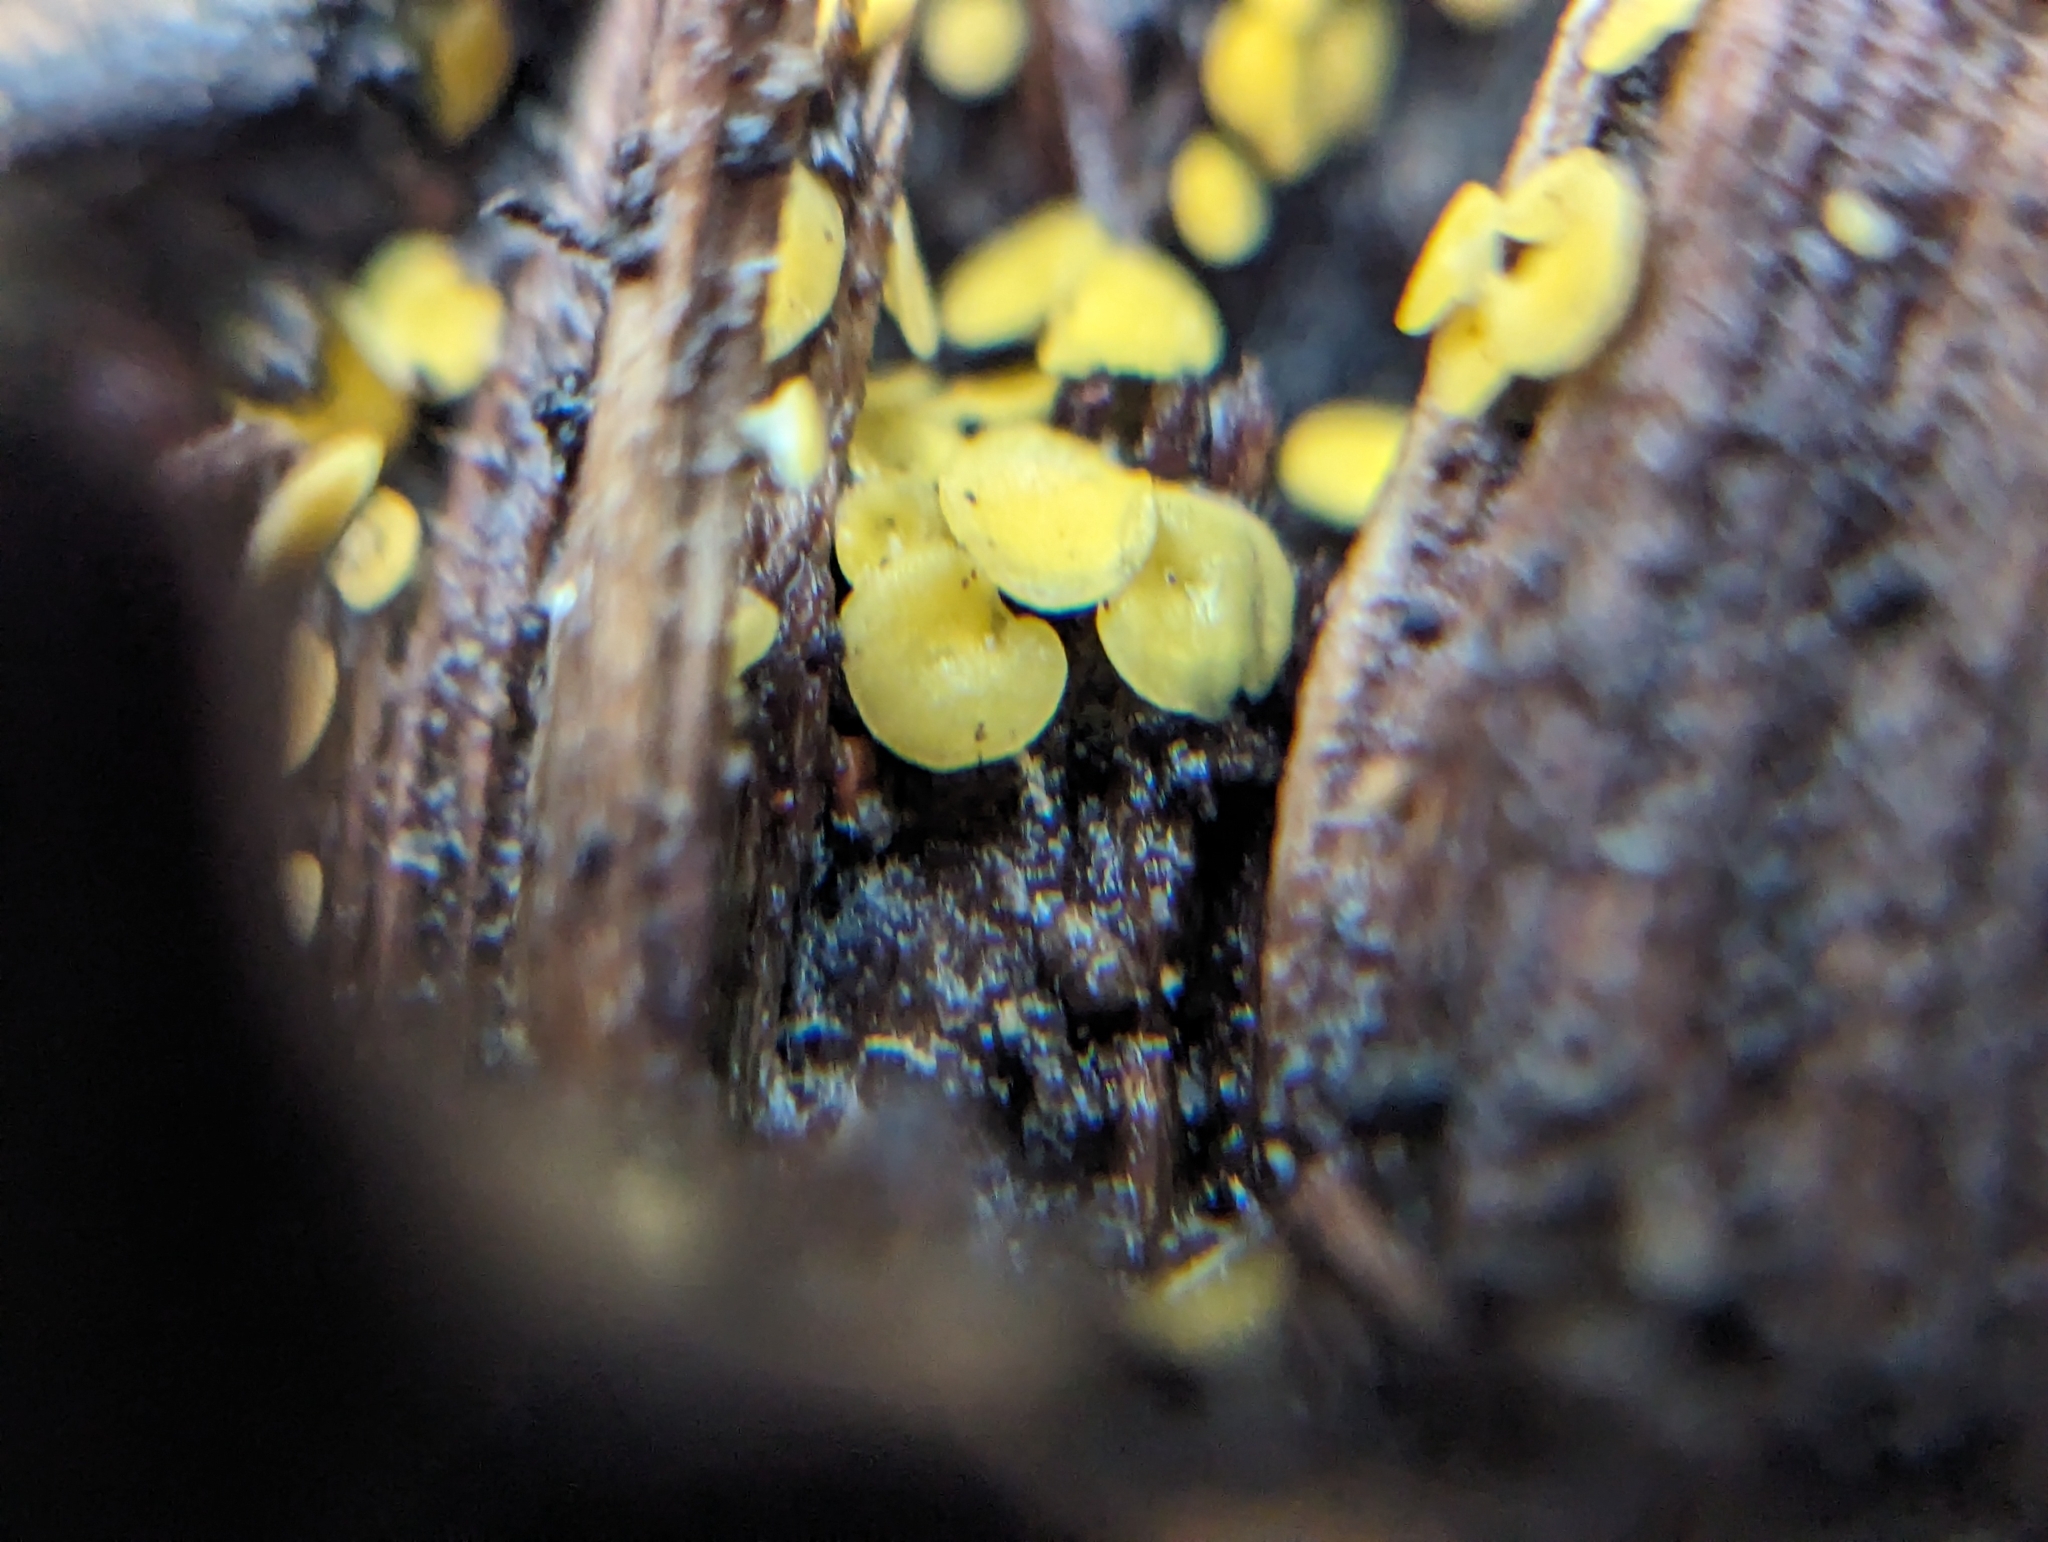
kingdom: Fungi
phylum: Ascomycota
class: Leotiomycetes
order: Helotiales
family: Pezizellaceae
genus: Calycina
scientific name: Calycina citrina
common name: Yellow fairy cups
